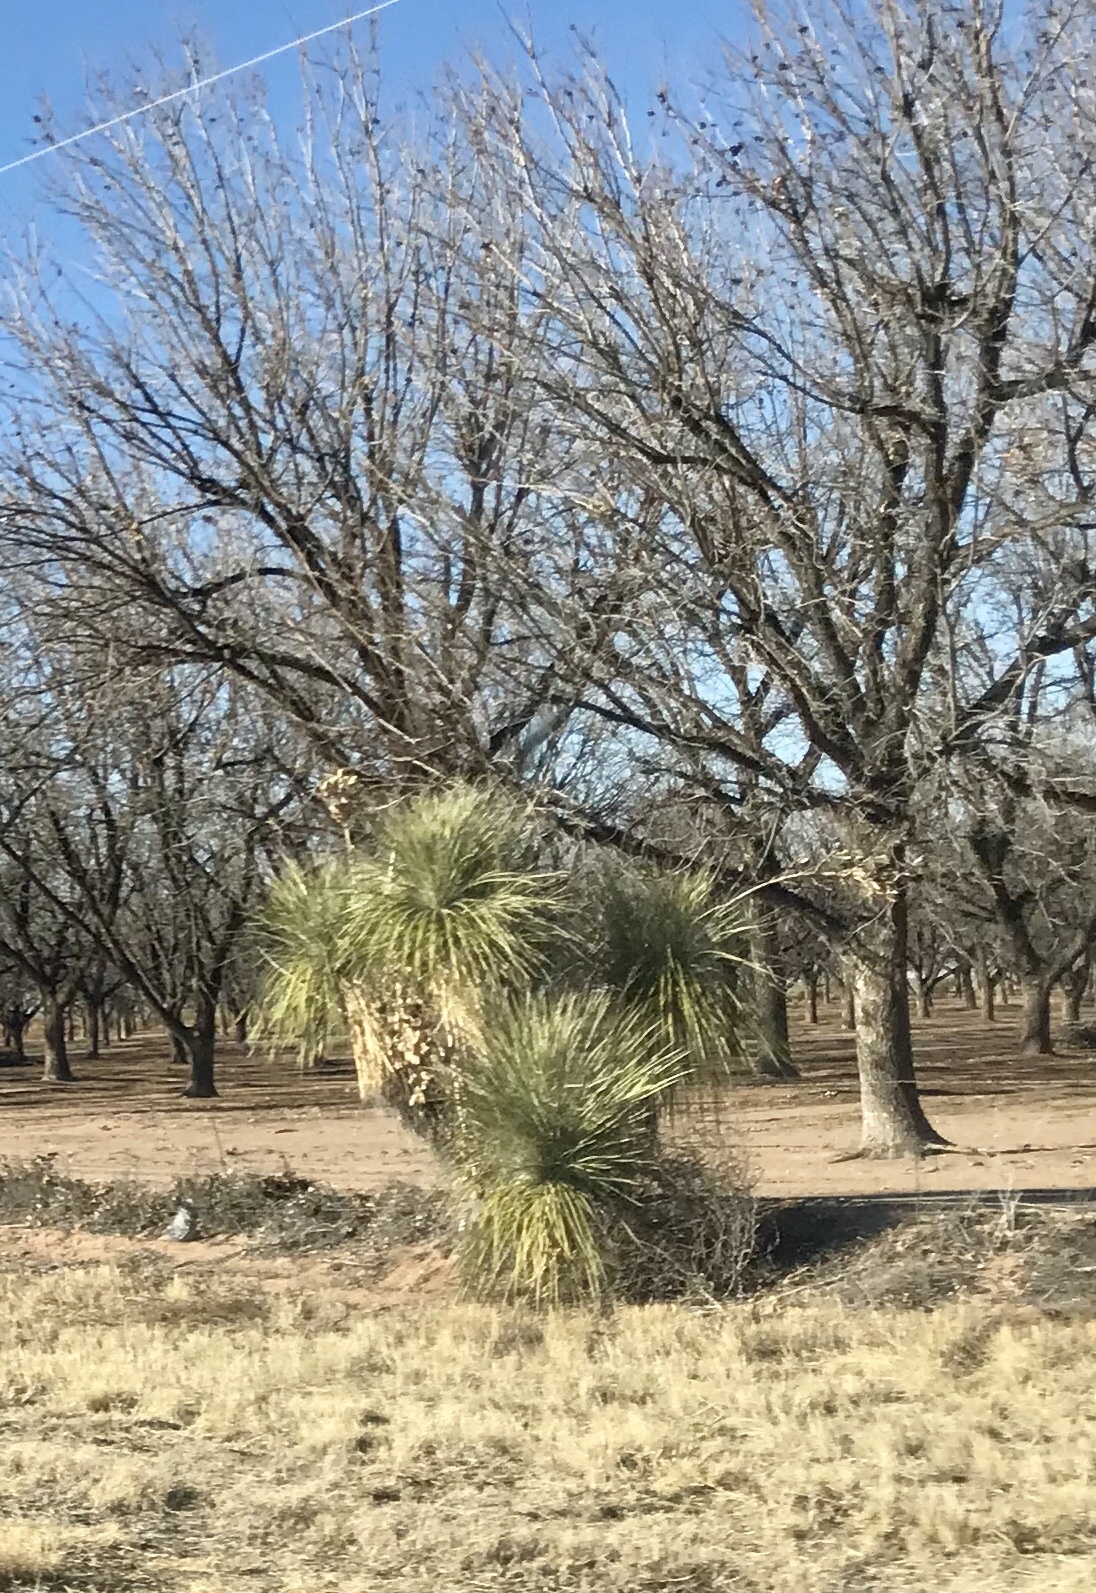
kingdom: Plantae
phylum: Tracheophyta
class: Liliopsida
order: Asparagales
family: Asparagaceae
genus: Yucca
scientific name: Yucca elata
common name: Palmella
